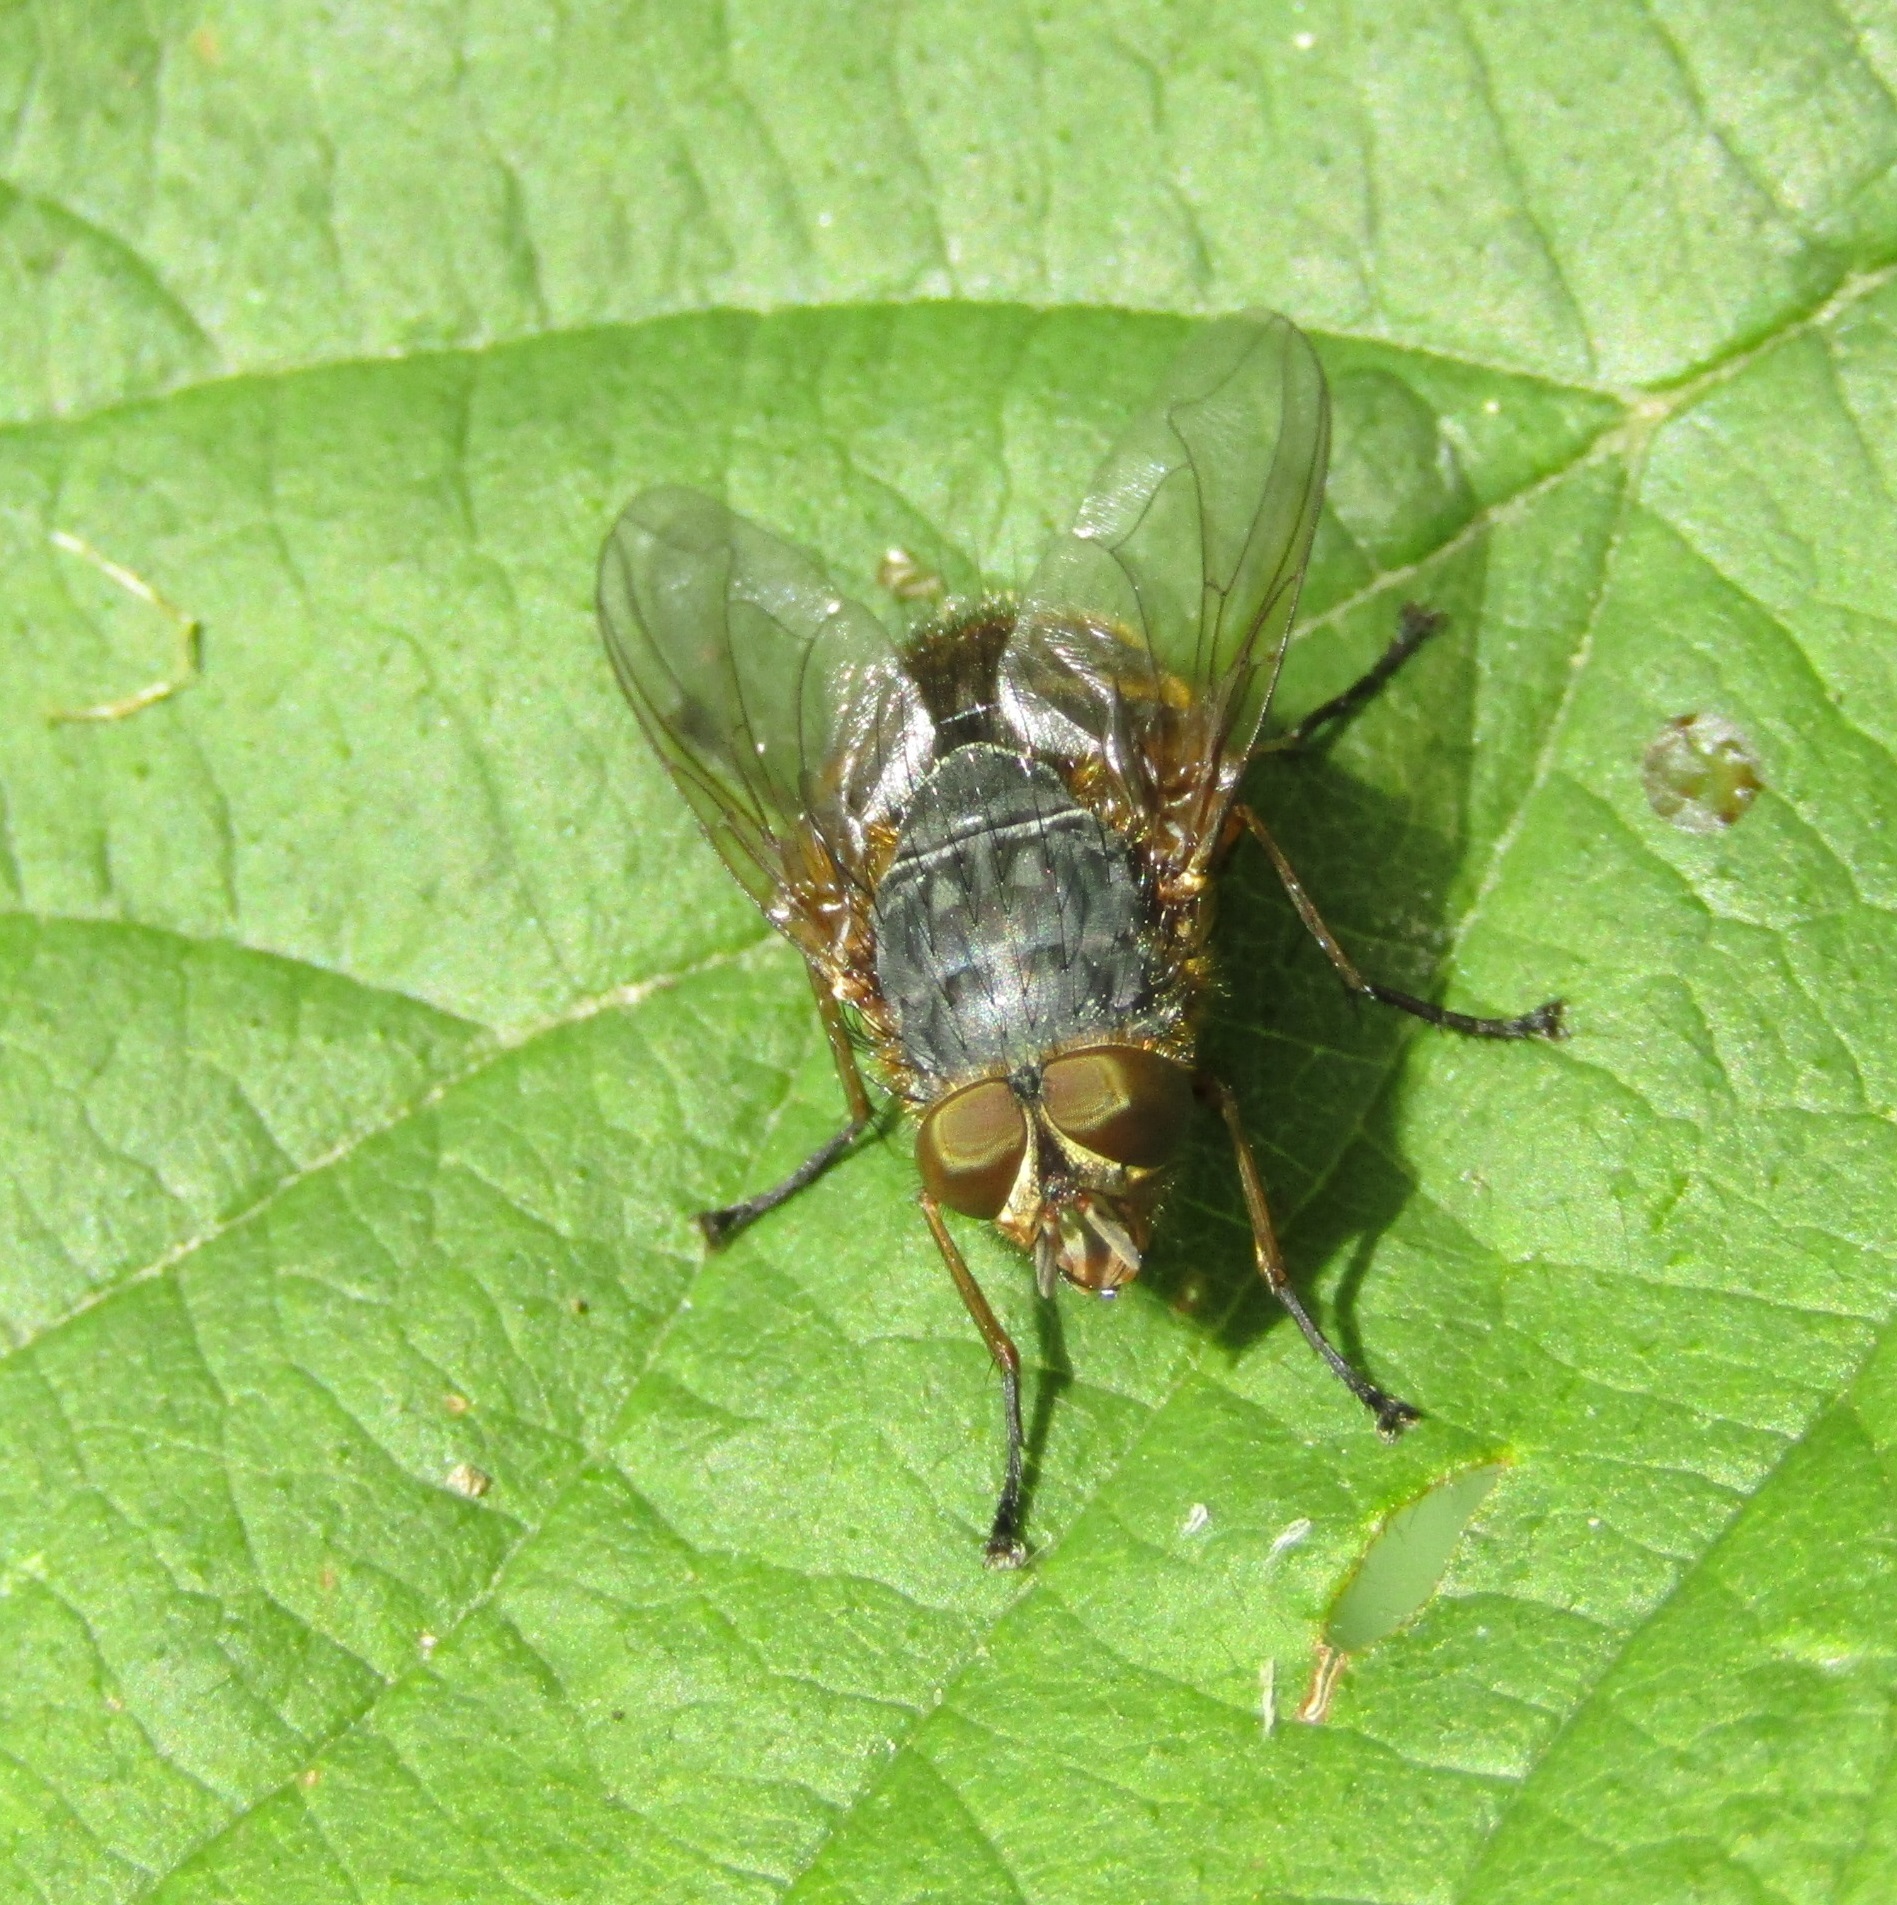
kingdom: Animalia
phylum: Arthropoda
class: Insecta
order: Diptera
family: Calliphoridae
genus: Calliphora
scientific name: Calliphora hilli
